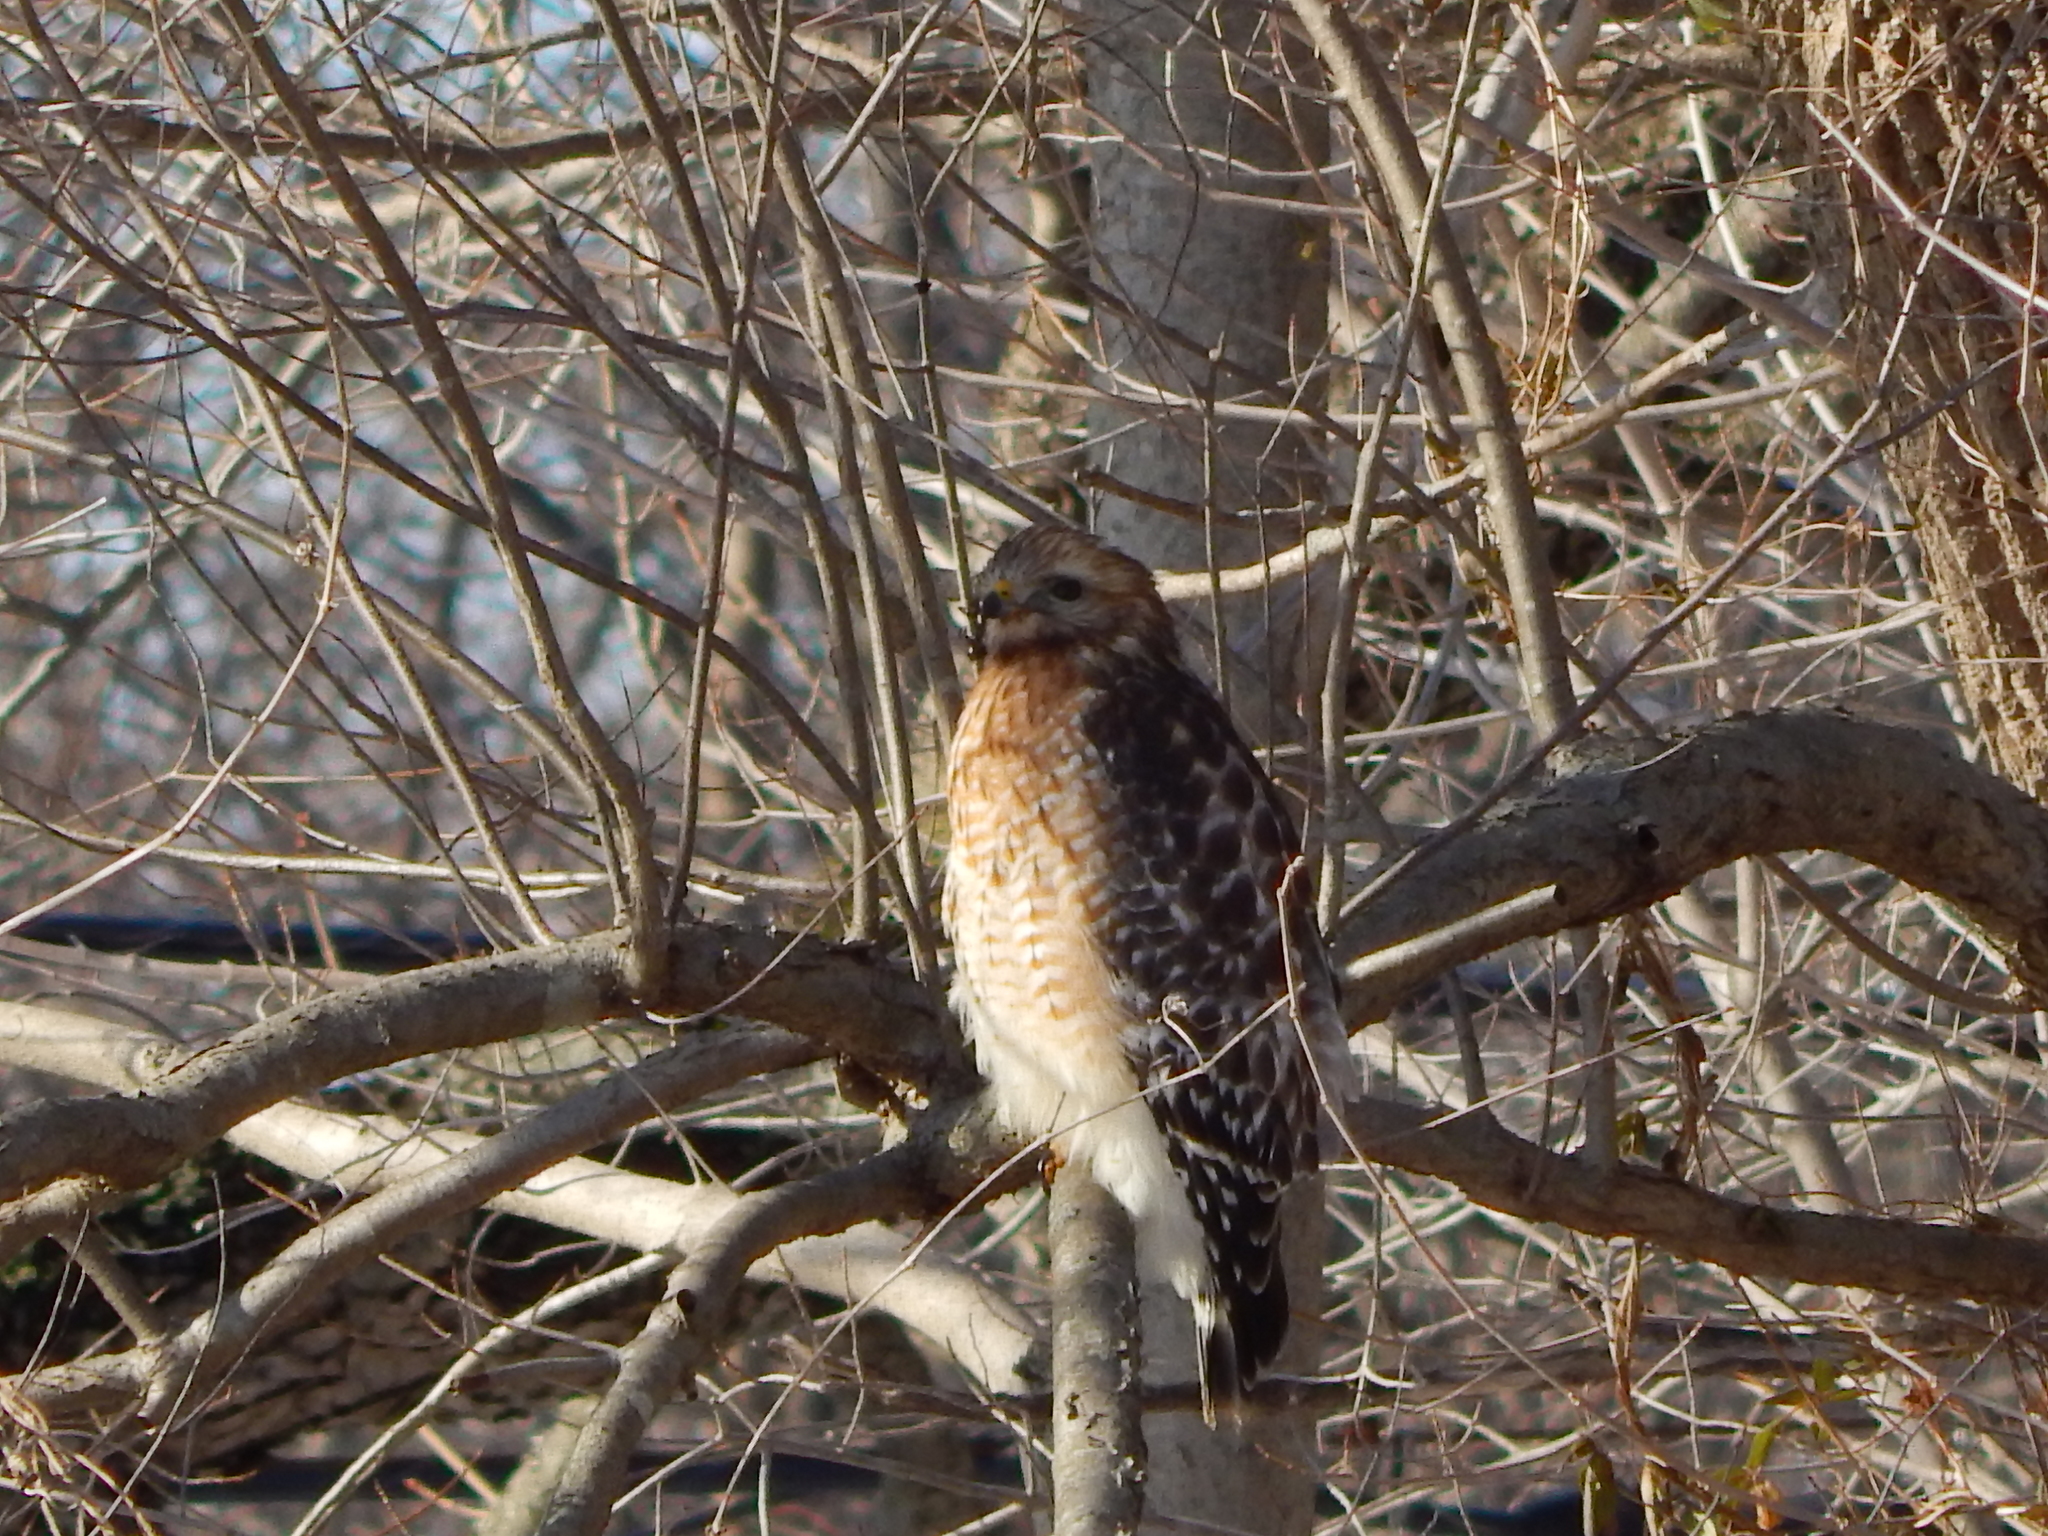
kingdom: Animalia
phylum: Chordata
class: Aves
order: Accipitriformes
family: Accipitridae
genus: Buteo
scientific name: Buteo lineatus
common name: Red-shouldered hawk
